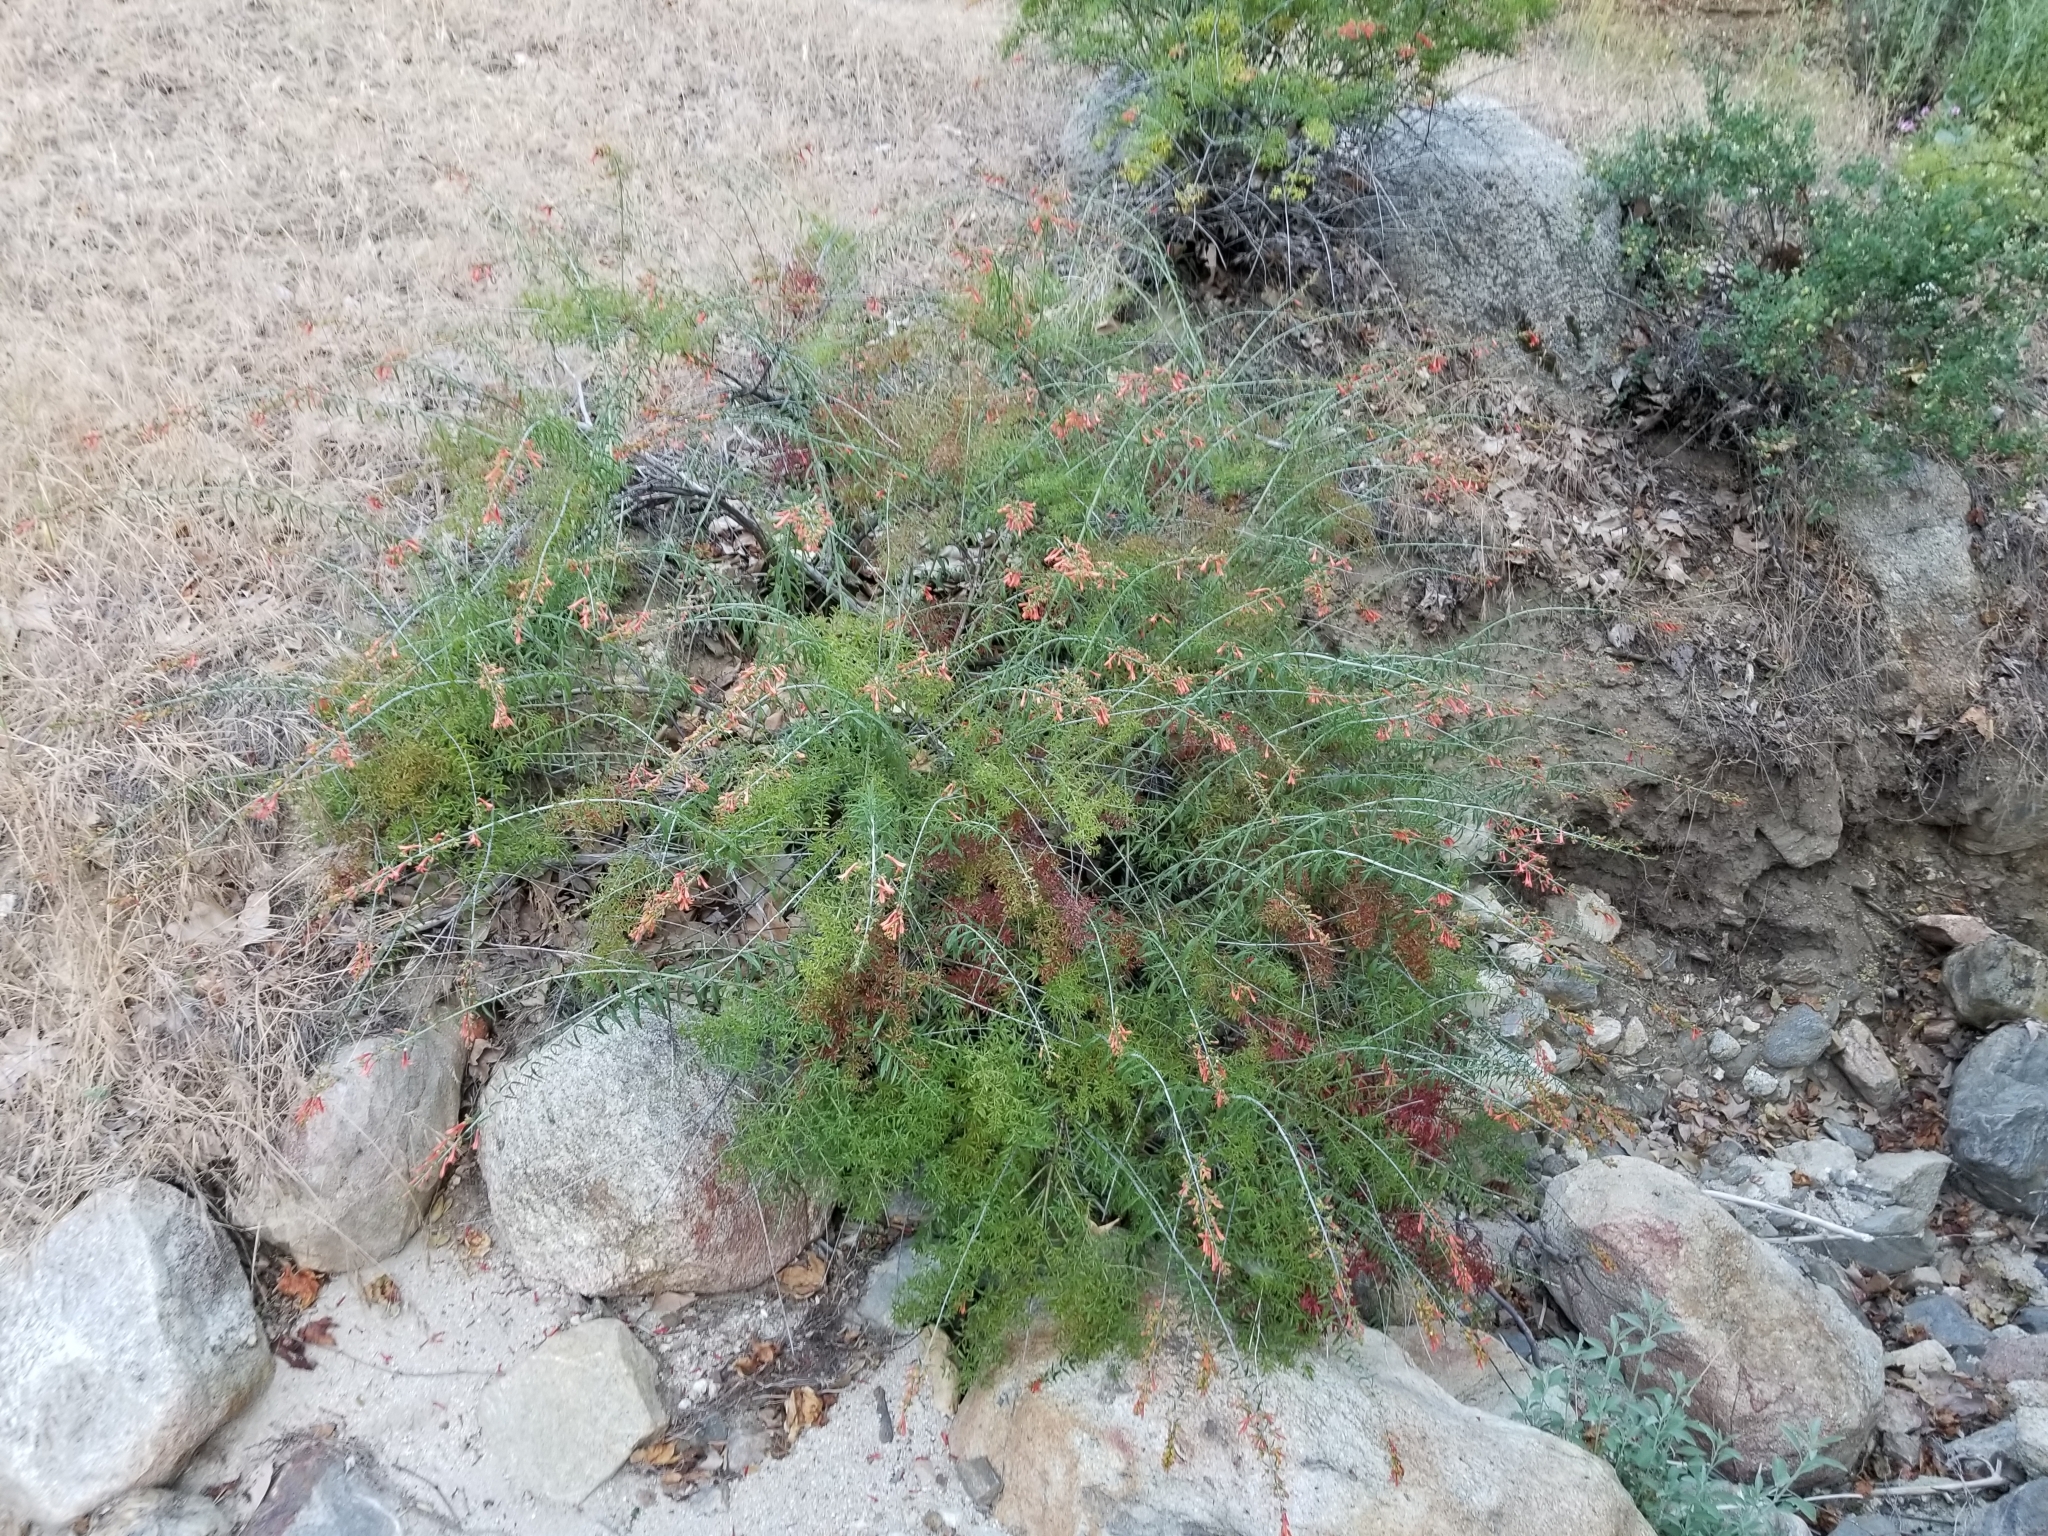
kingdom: Plantae
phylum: Tracheophyta
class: Magnoliopsida
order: Lamiales
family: Plantaginaceae
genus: Keckiella
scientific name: Keckiella ternata
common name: Scarlet keckiella
